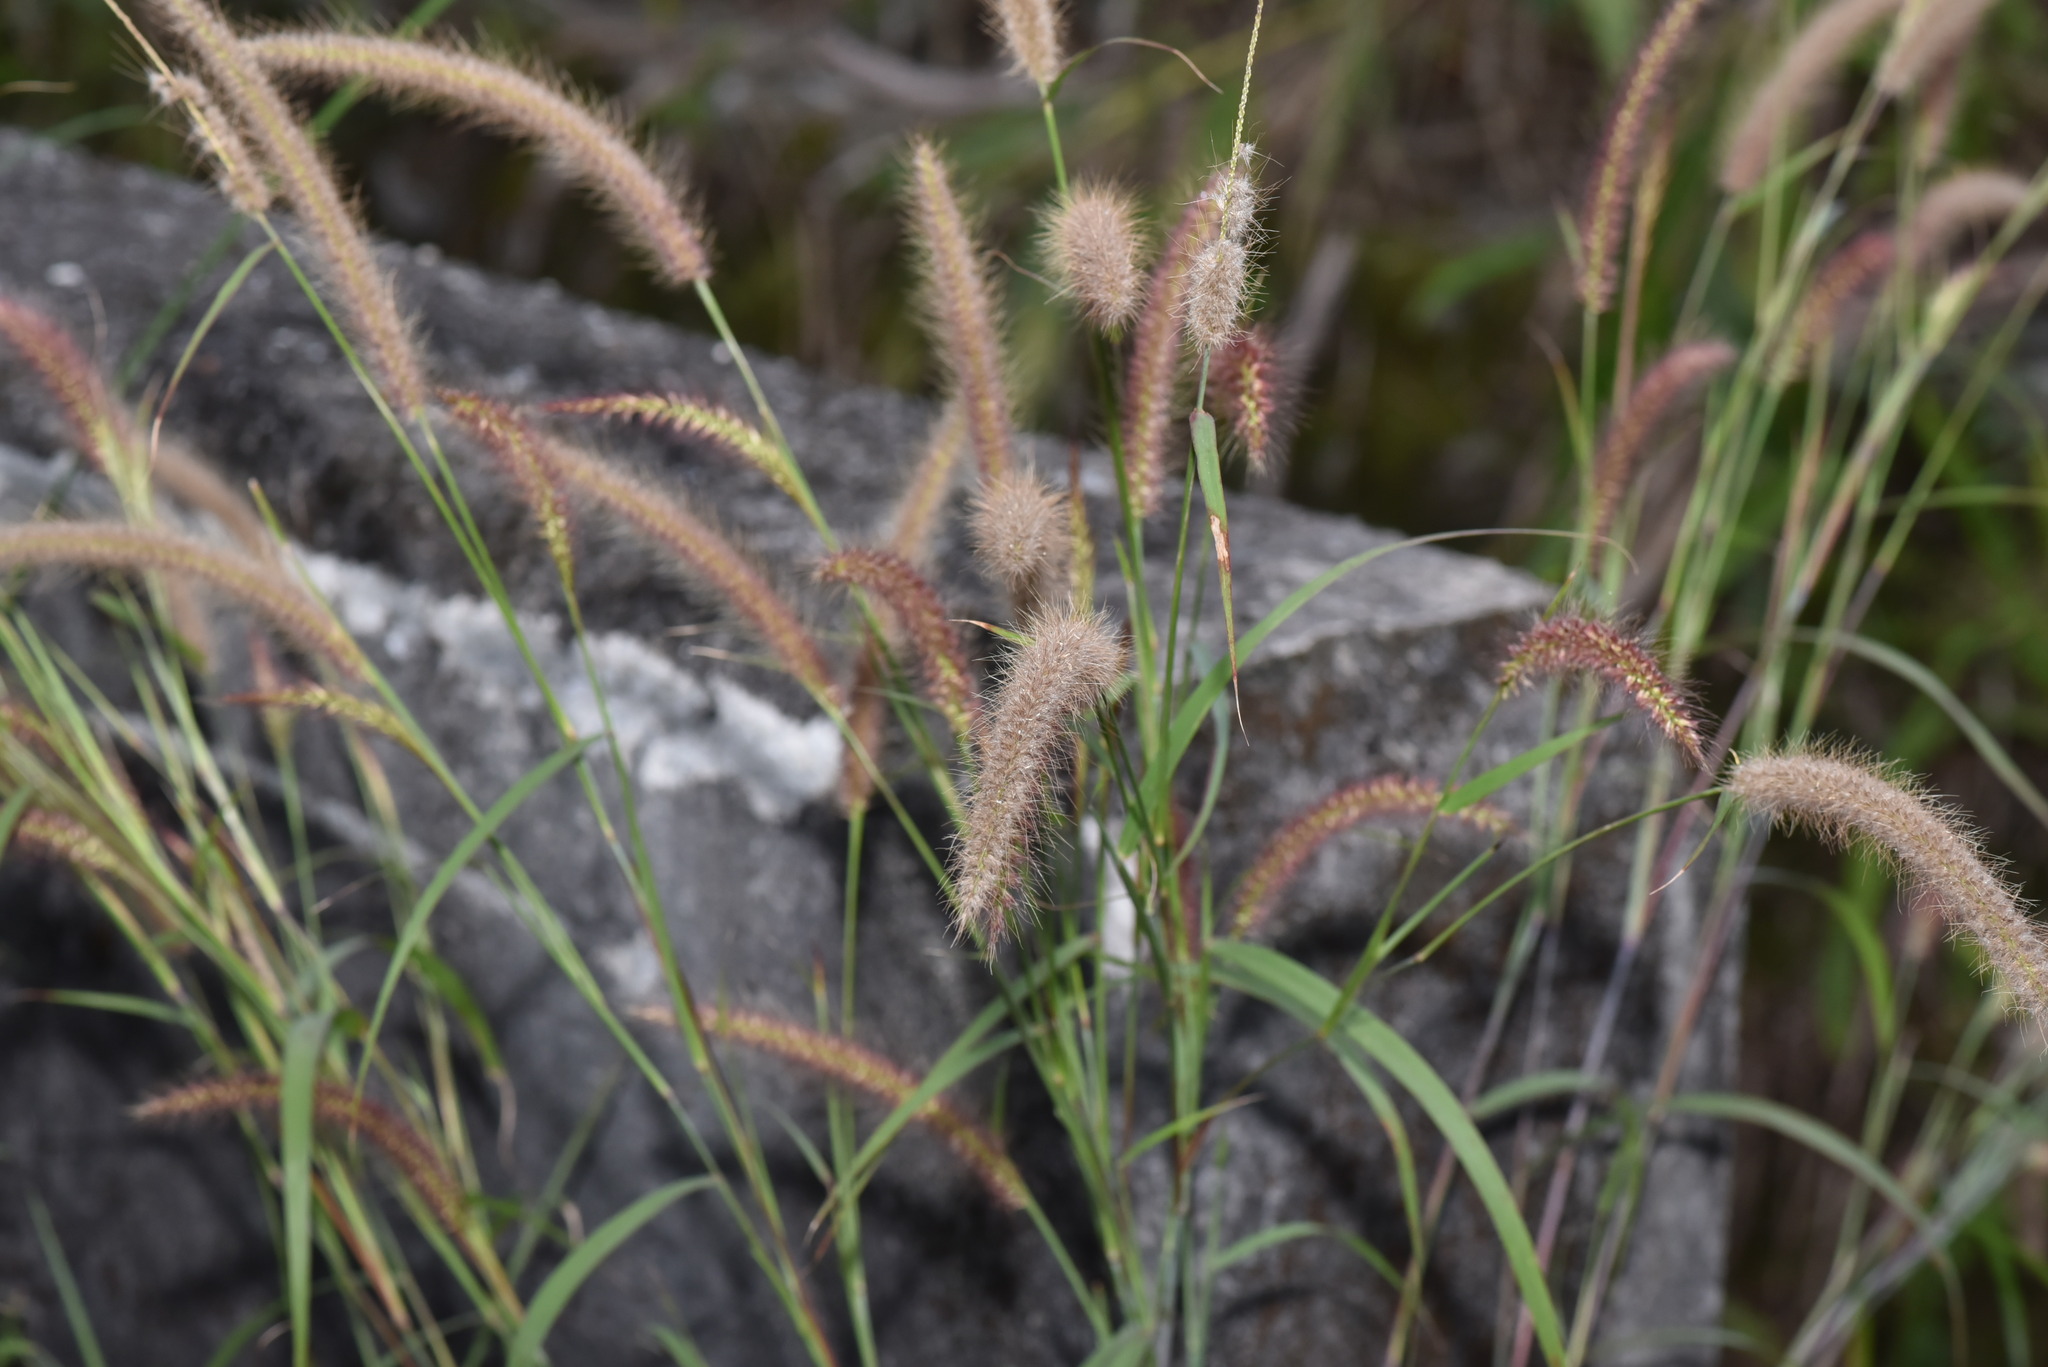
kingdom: Plantae
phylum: Tracheophyta
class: Liliopsida
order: Poales
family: Poaceae
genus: Cenchrus
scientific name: Cenchrus setosus
